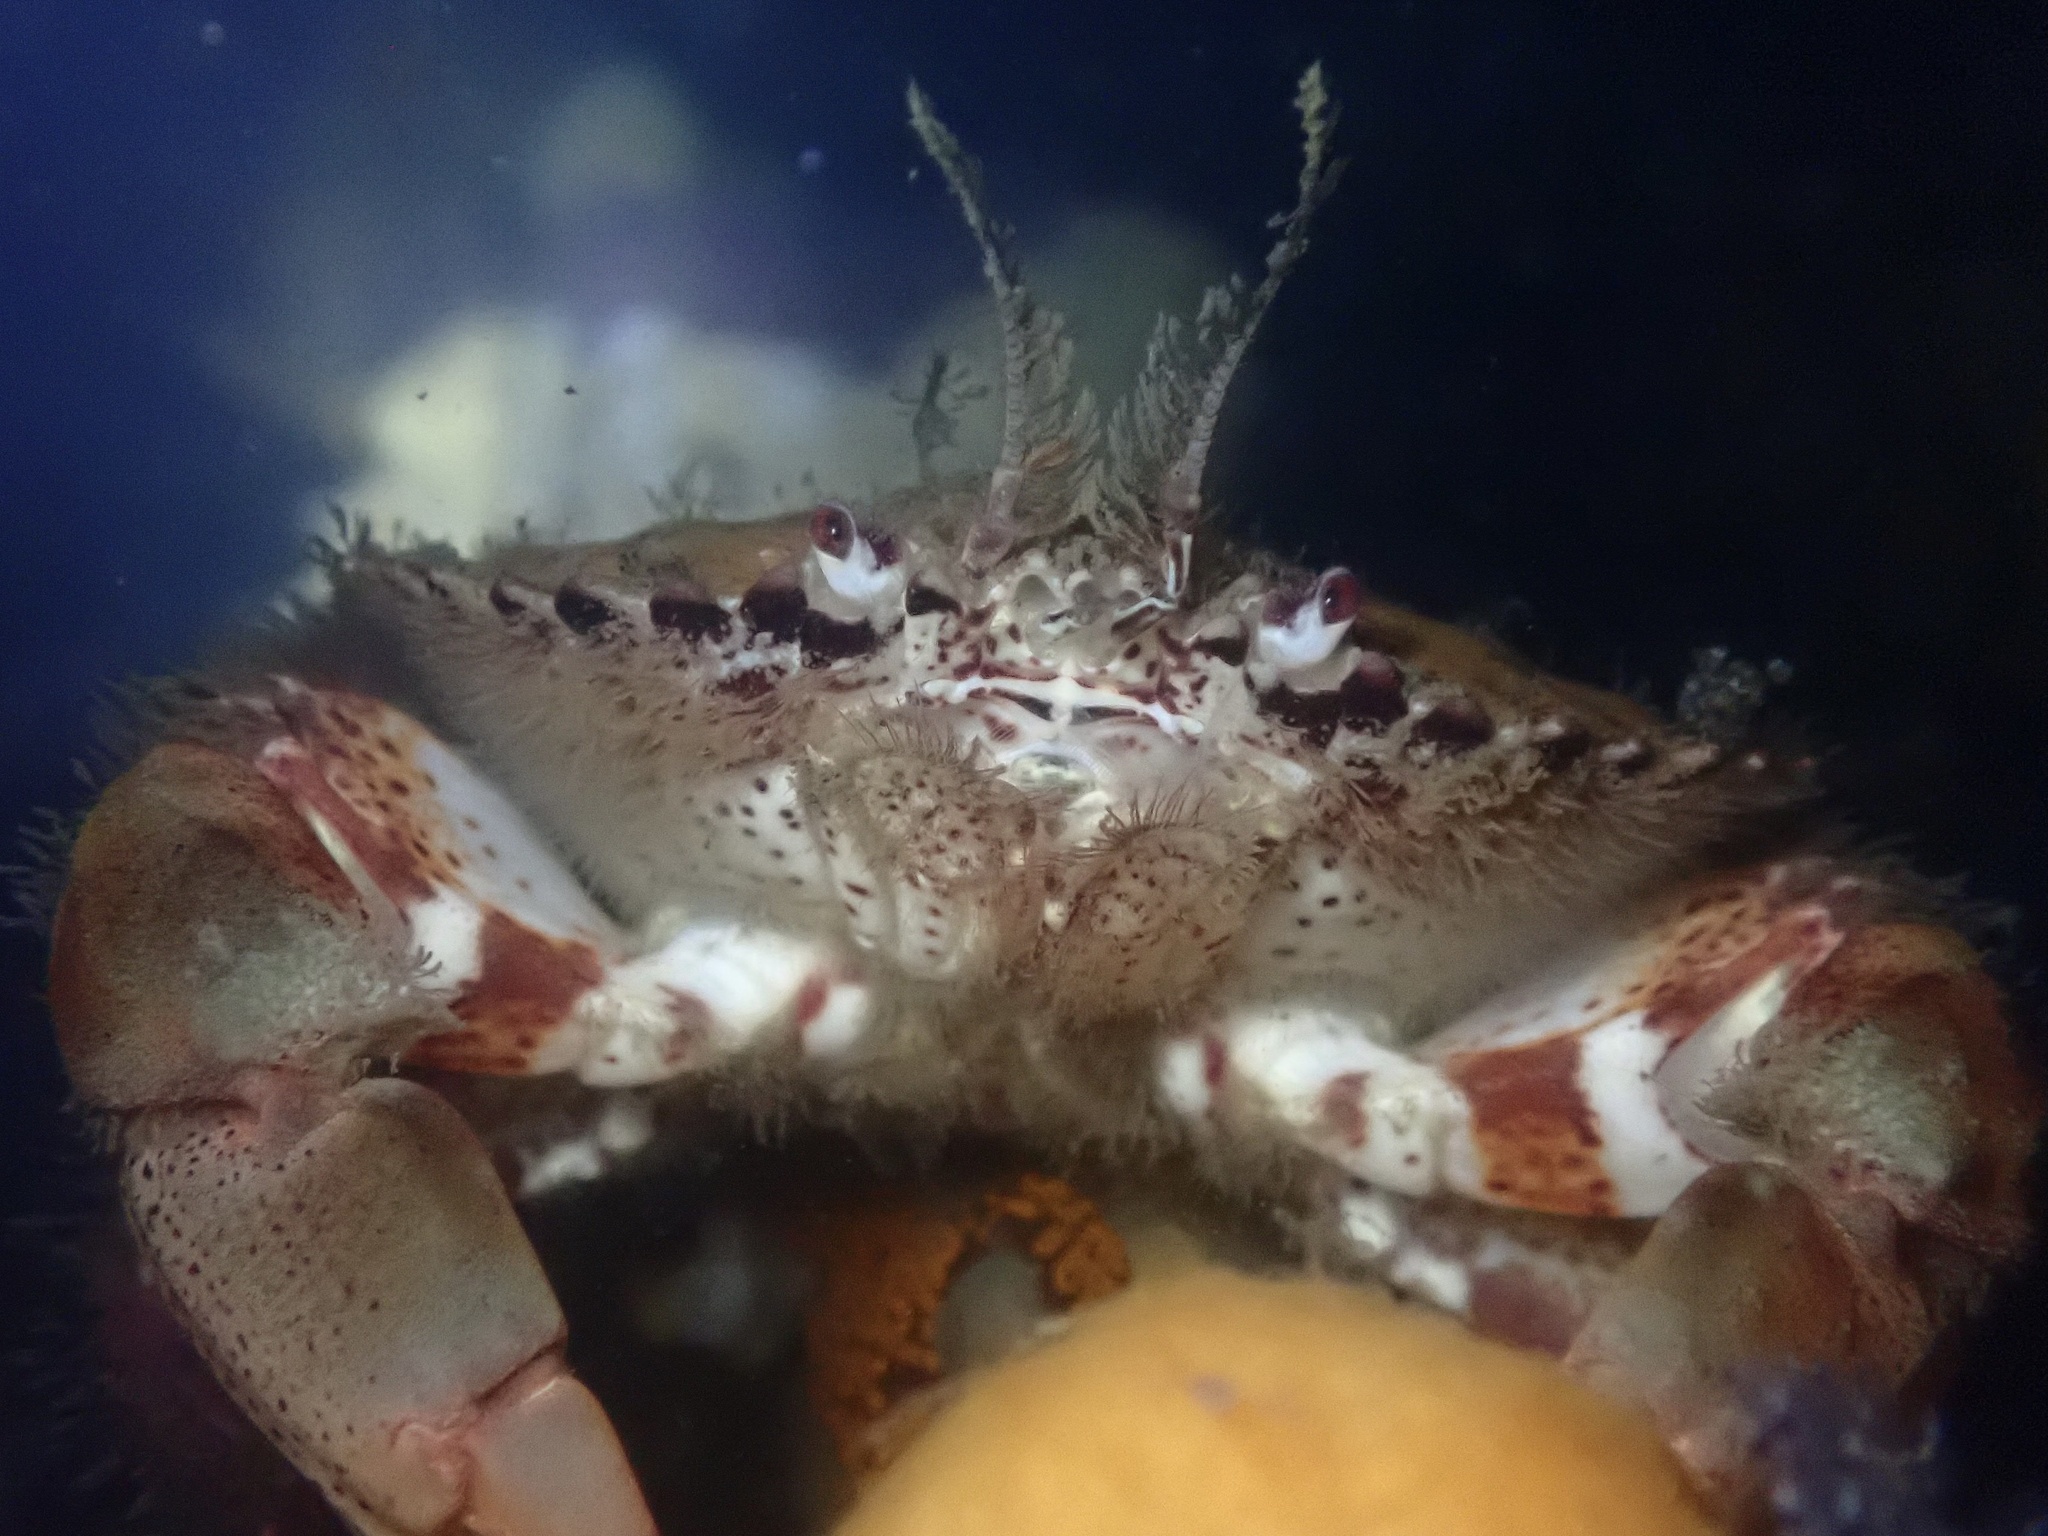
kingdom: Animalia
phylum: Arthropoda
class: Malacostraca
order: Decapoda
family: Cancridae
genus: Romaleon
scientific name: Romaleon antennarium
